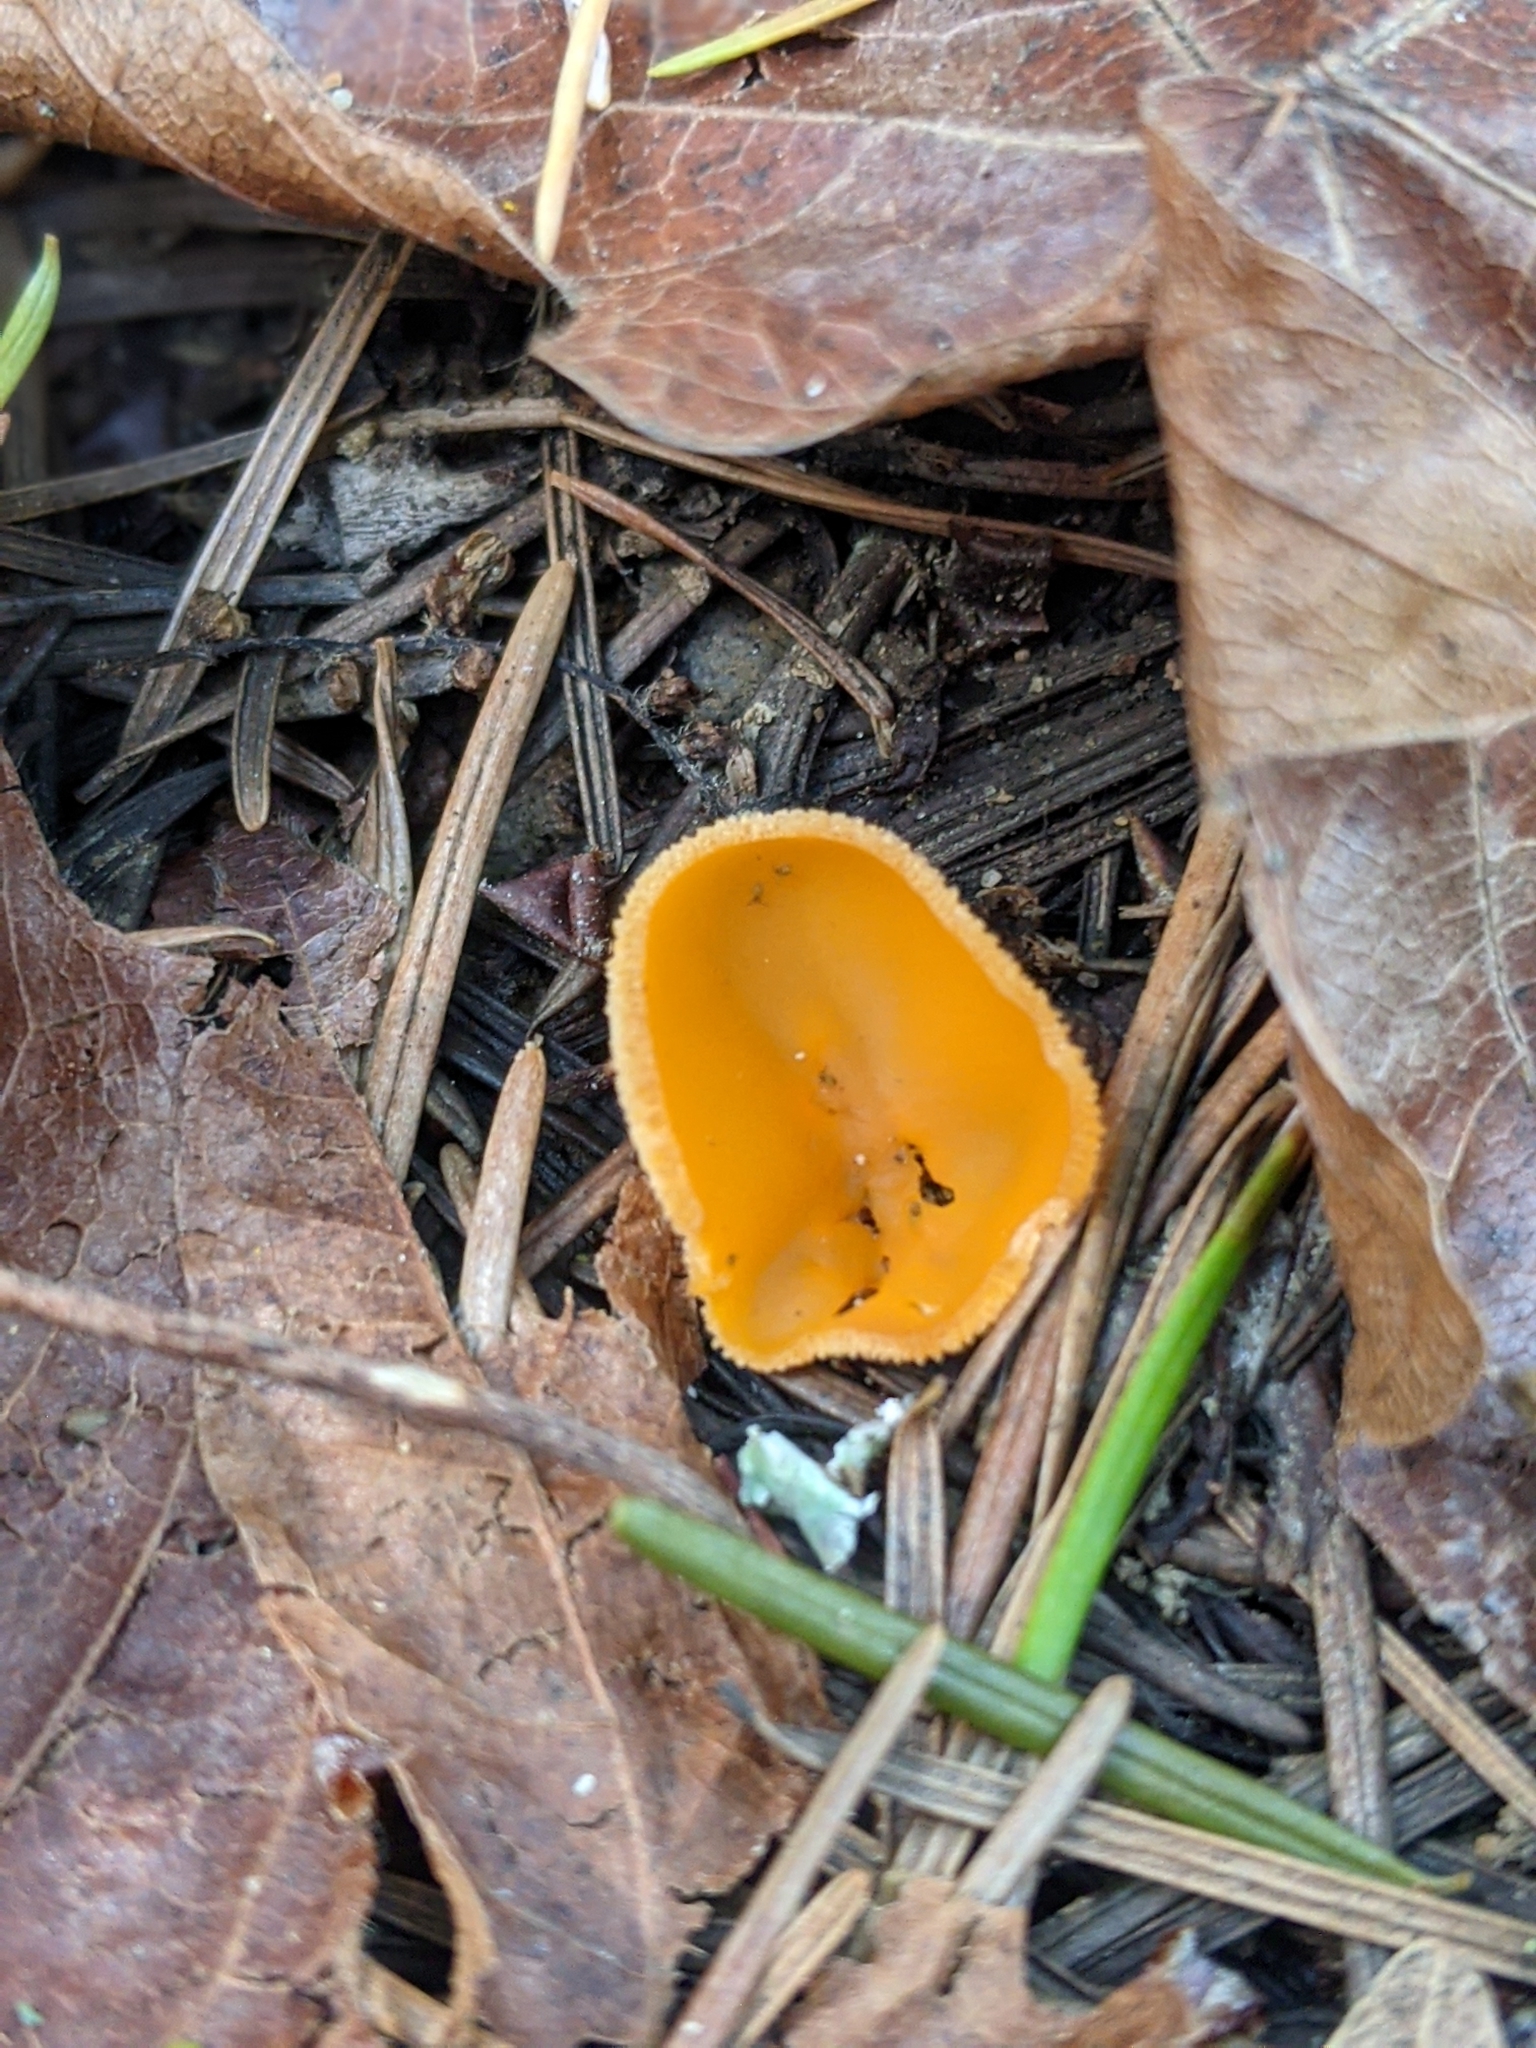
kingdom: Fungi
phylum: Ascomycota
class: Pezizomycetes
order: Pezizales
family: Pyronemataceae
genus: Aleuria
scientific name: Aleuria aurantia
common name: Orange peel fungus
